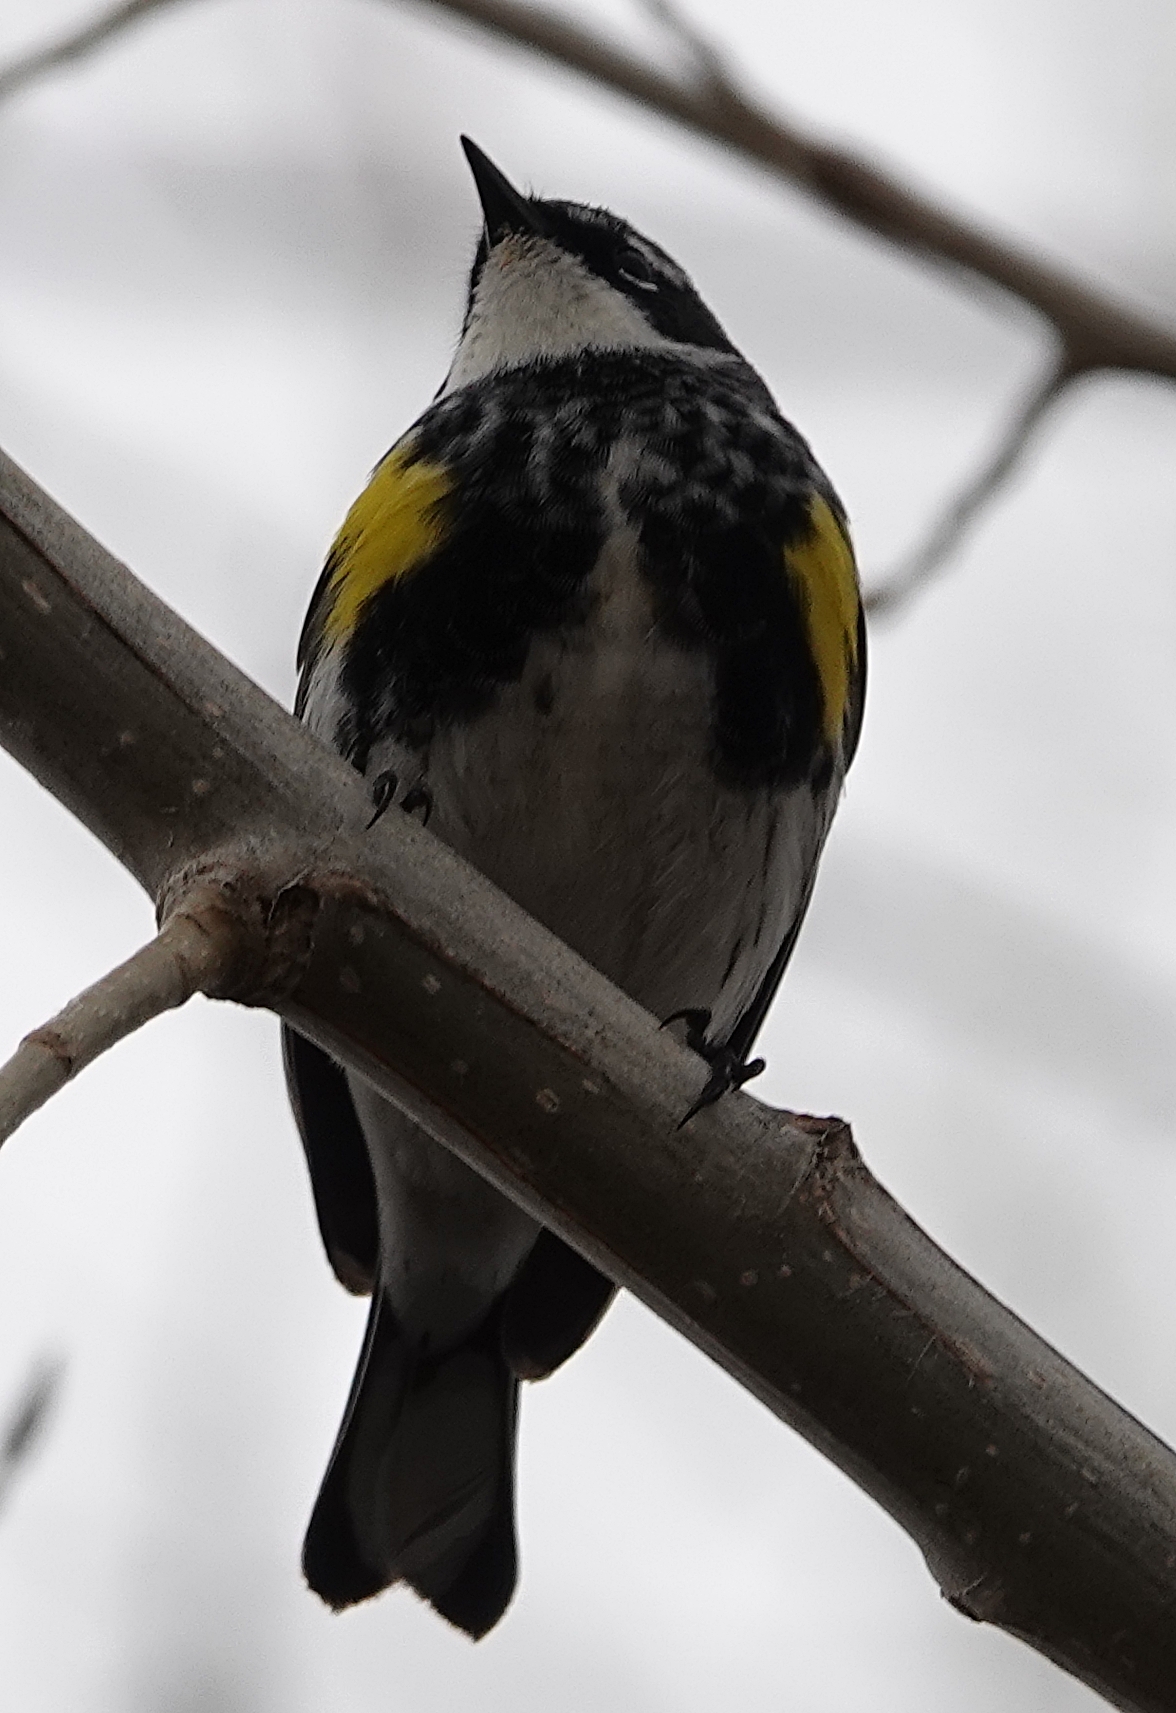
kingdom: Animalia
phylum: Chordata
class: Aves
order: Passeriformes
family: Parulidae
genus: Setophaga
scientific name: Setophaga coronata
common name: Myrtle warbler
